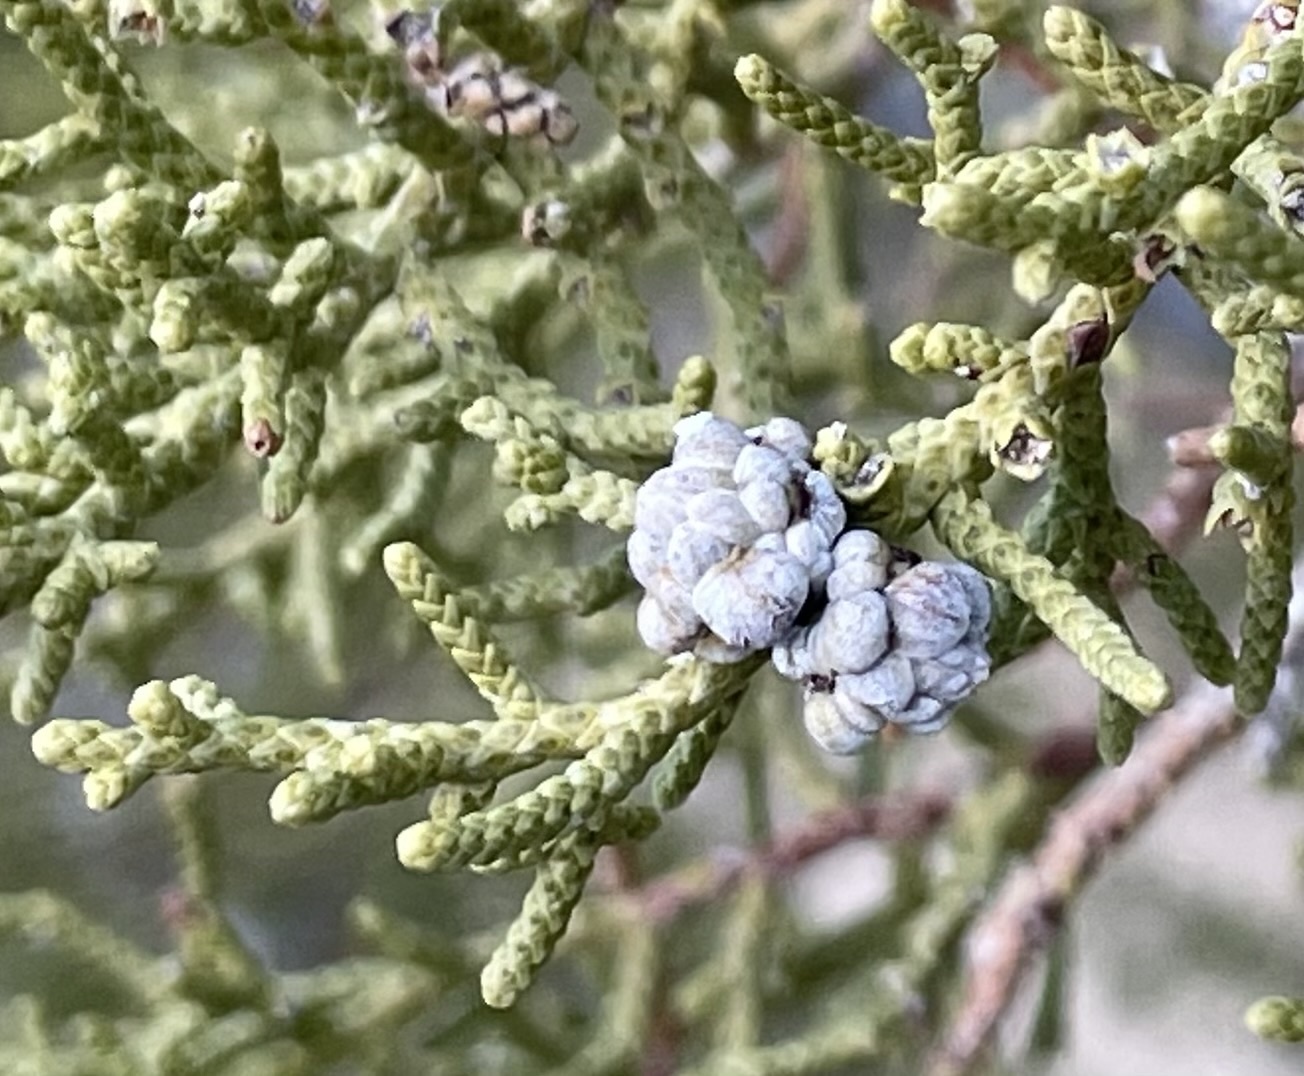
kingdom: Plantae
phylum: Tracheophyta
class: Pinopsida
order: Pinales
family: Cupressaceae
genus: Juniperus
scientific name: Juniperus californica
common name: California juniper
